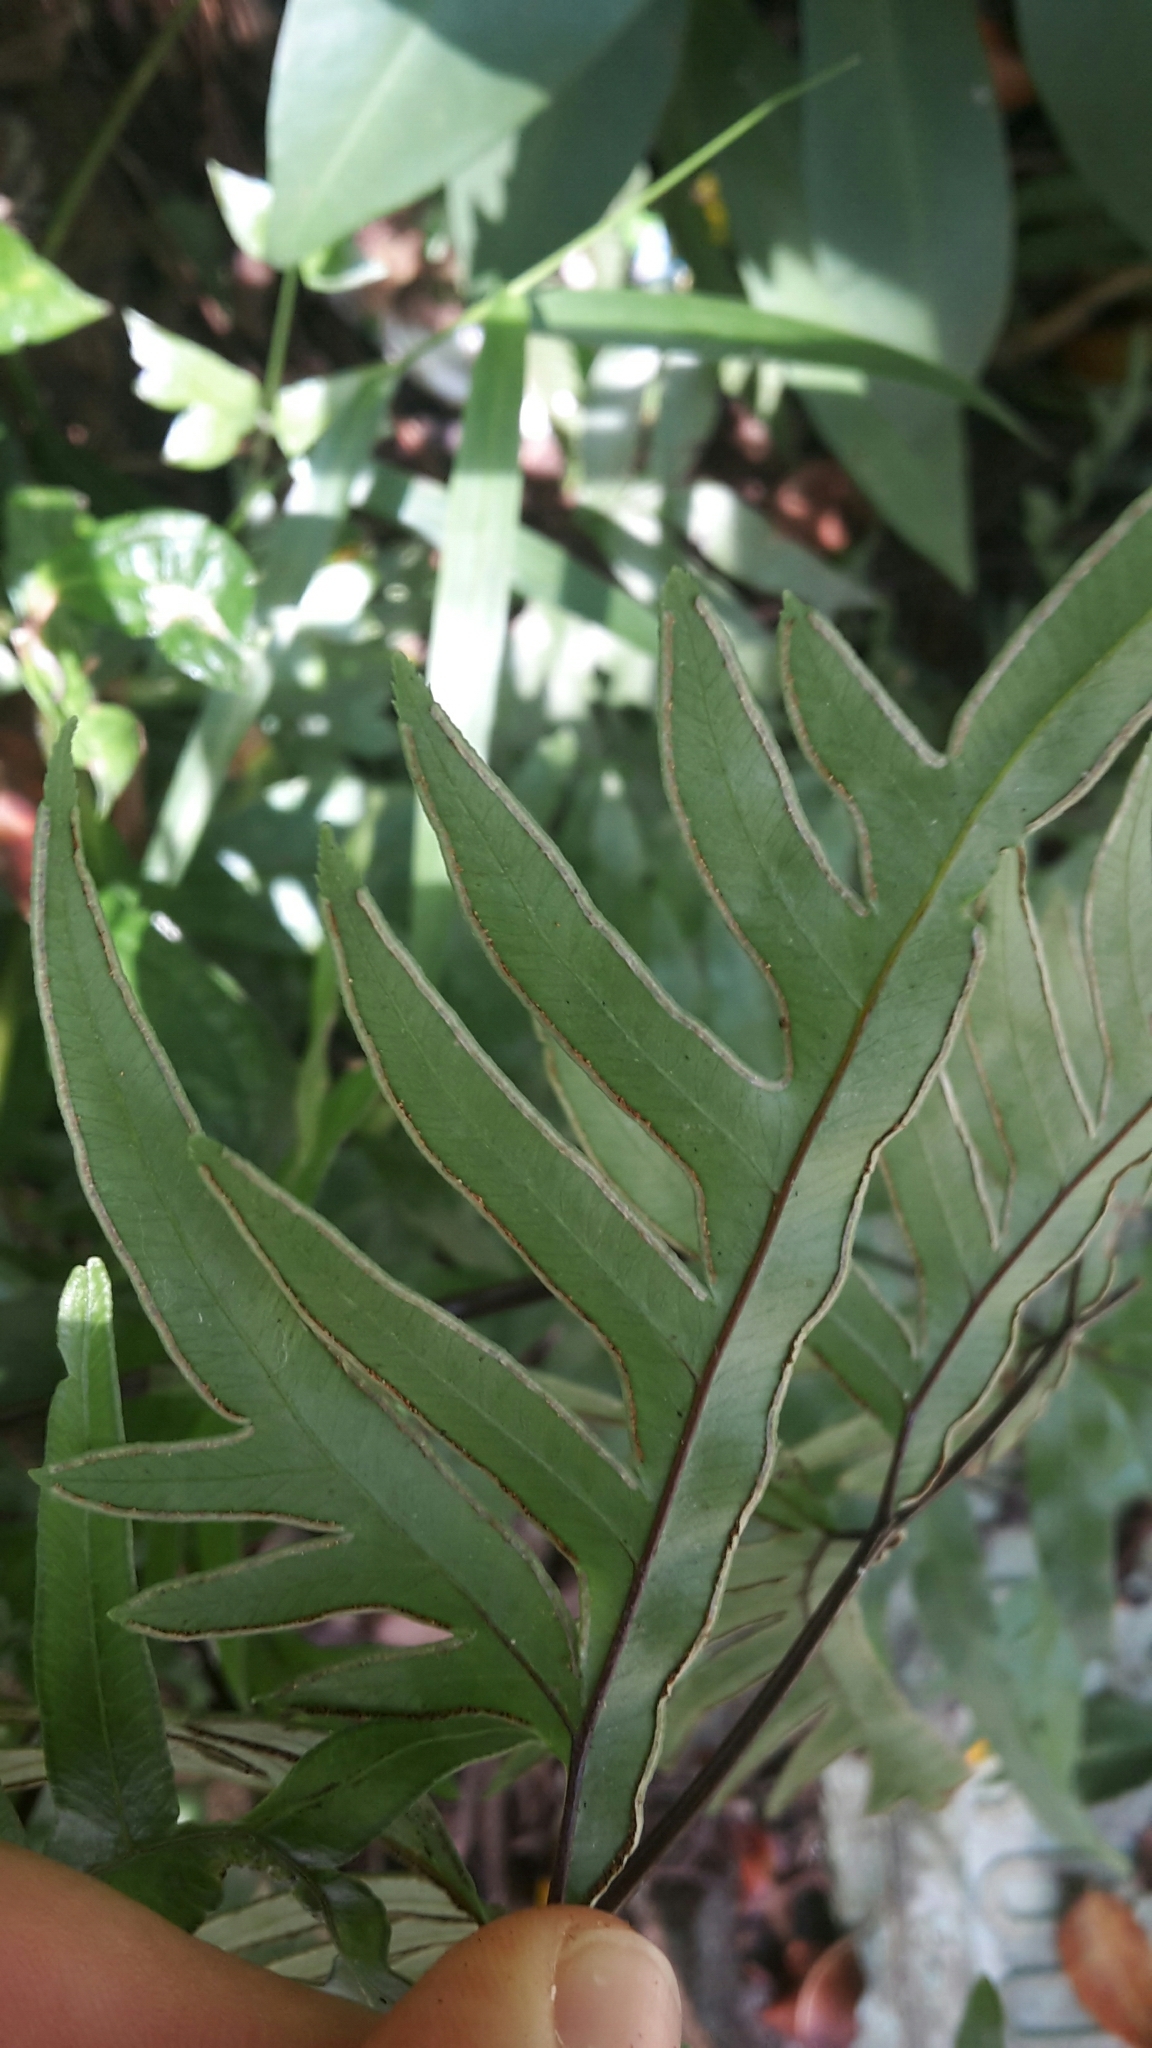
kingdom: Plantae
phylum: Tracheophyta
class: Polypodiopsida
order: Polypodiales
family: Pteridaceae
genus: Pteris
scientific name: Pteris semipinnata
